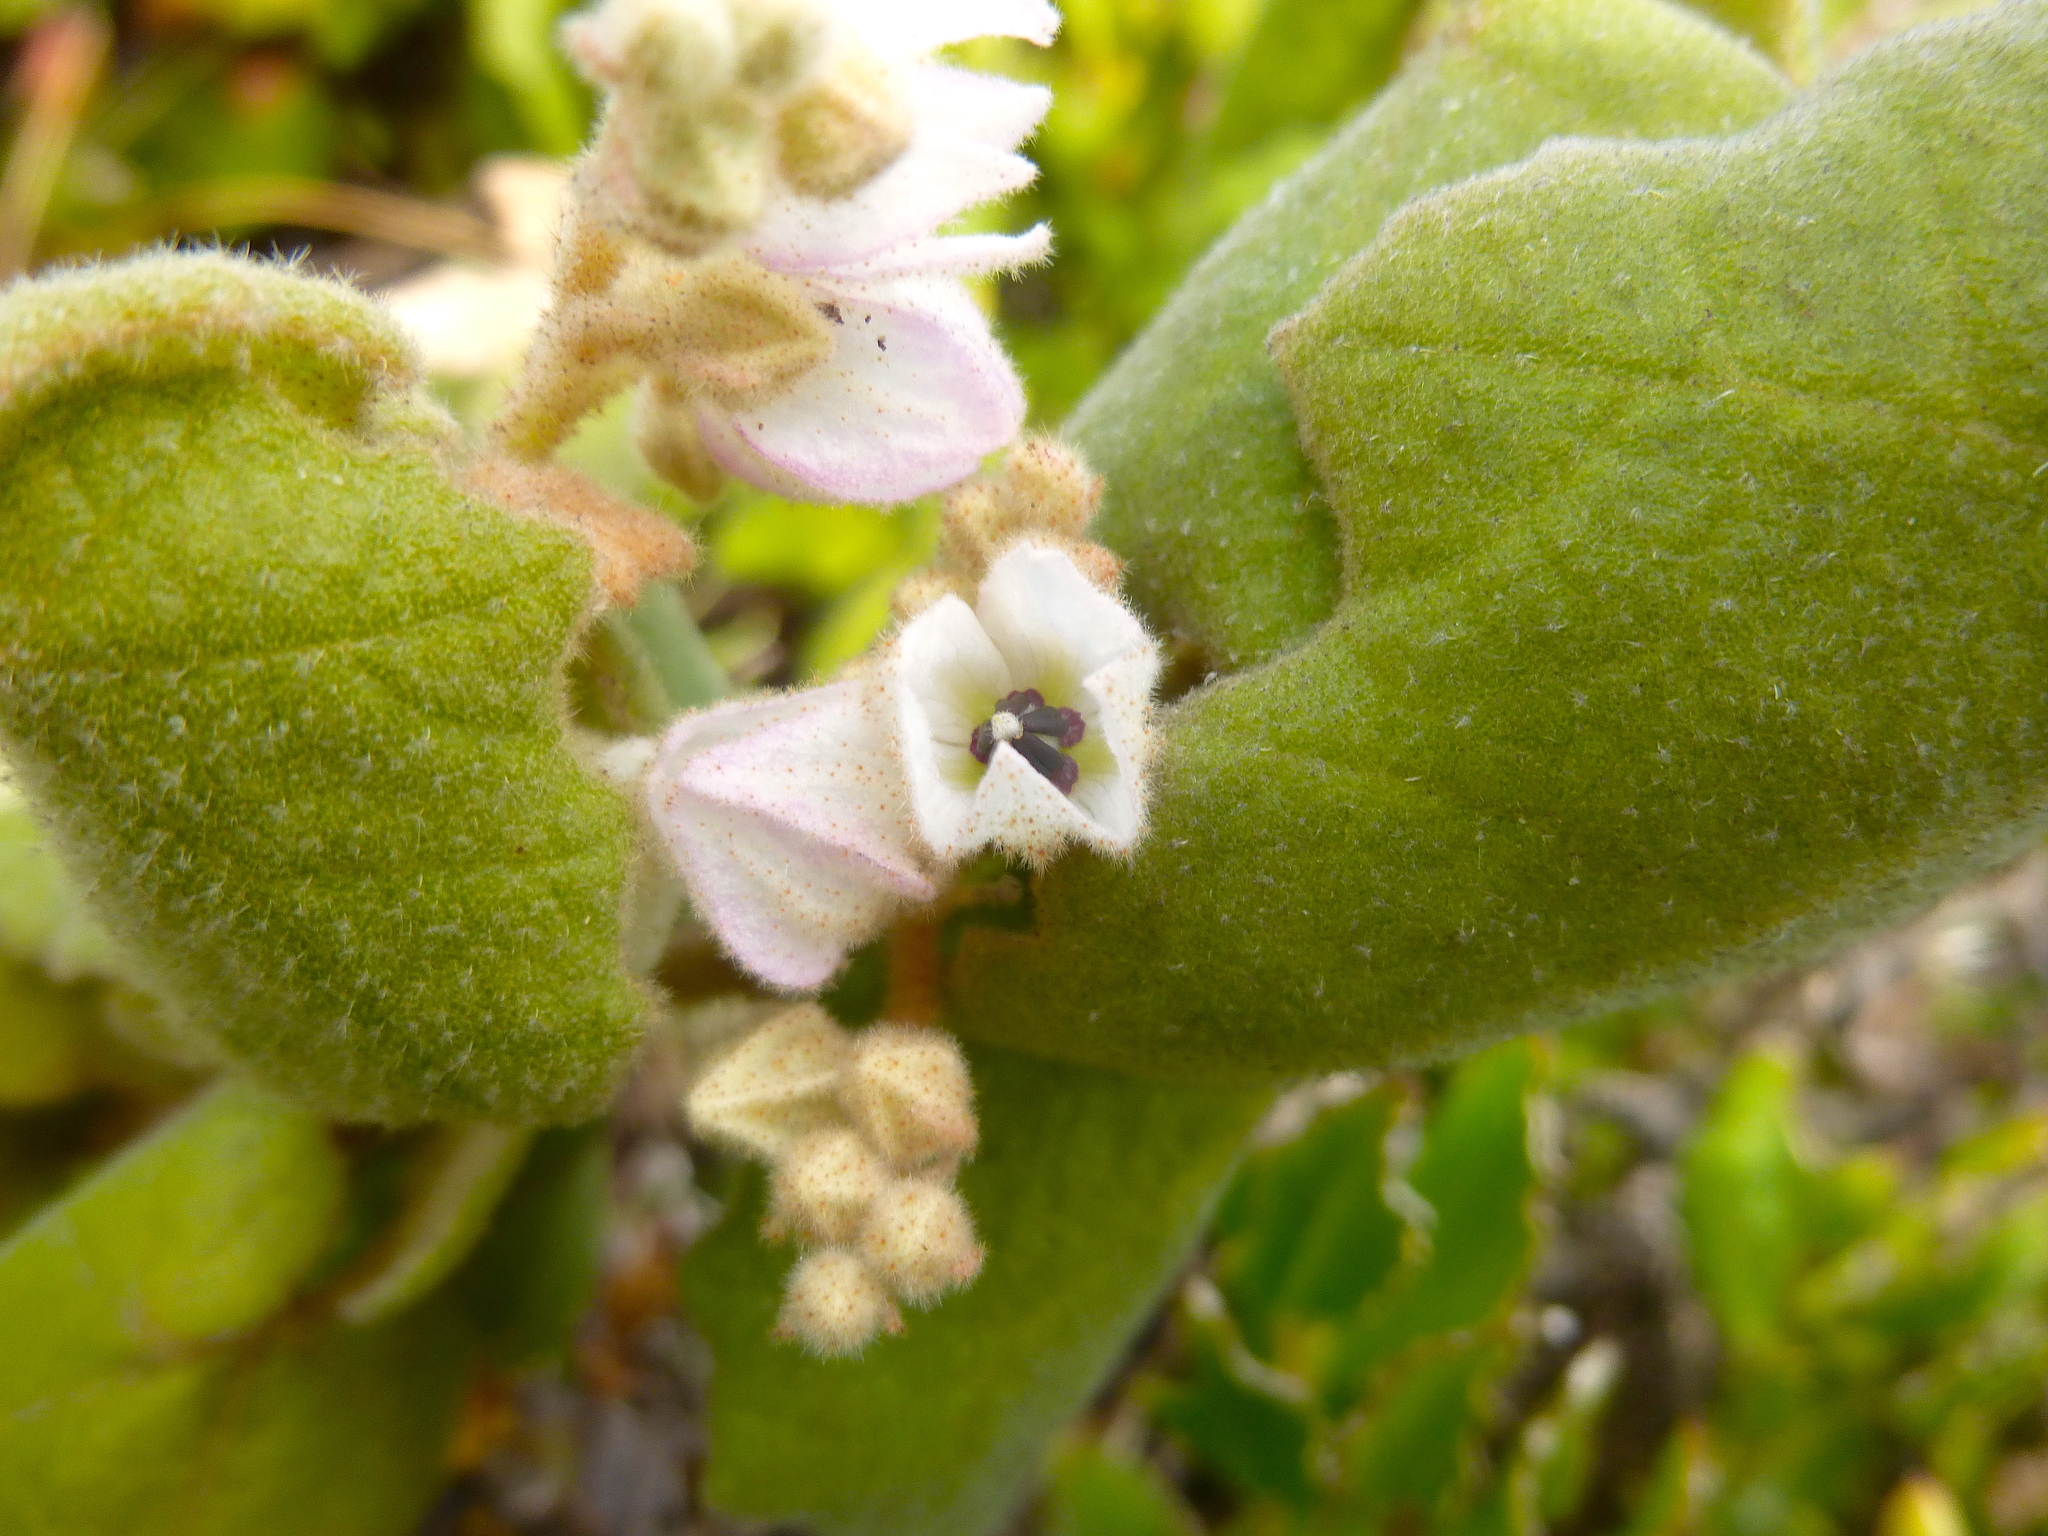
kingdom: Plantae
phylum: Tracheophyta
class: Magnoliopsida
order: Malvales
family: Malvaceae
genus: Lasiopetalum
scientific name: Lasiopetalum schulzenii
